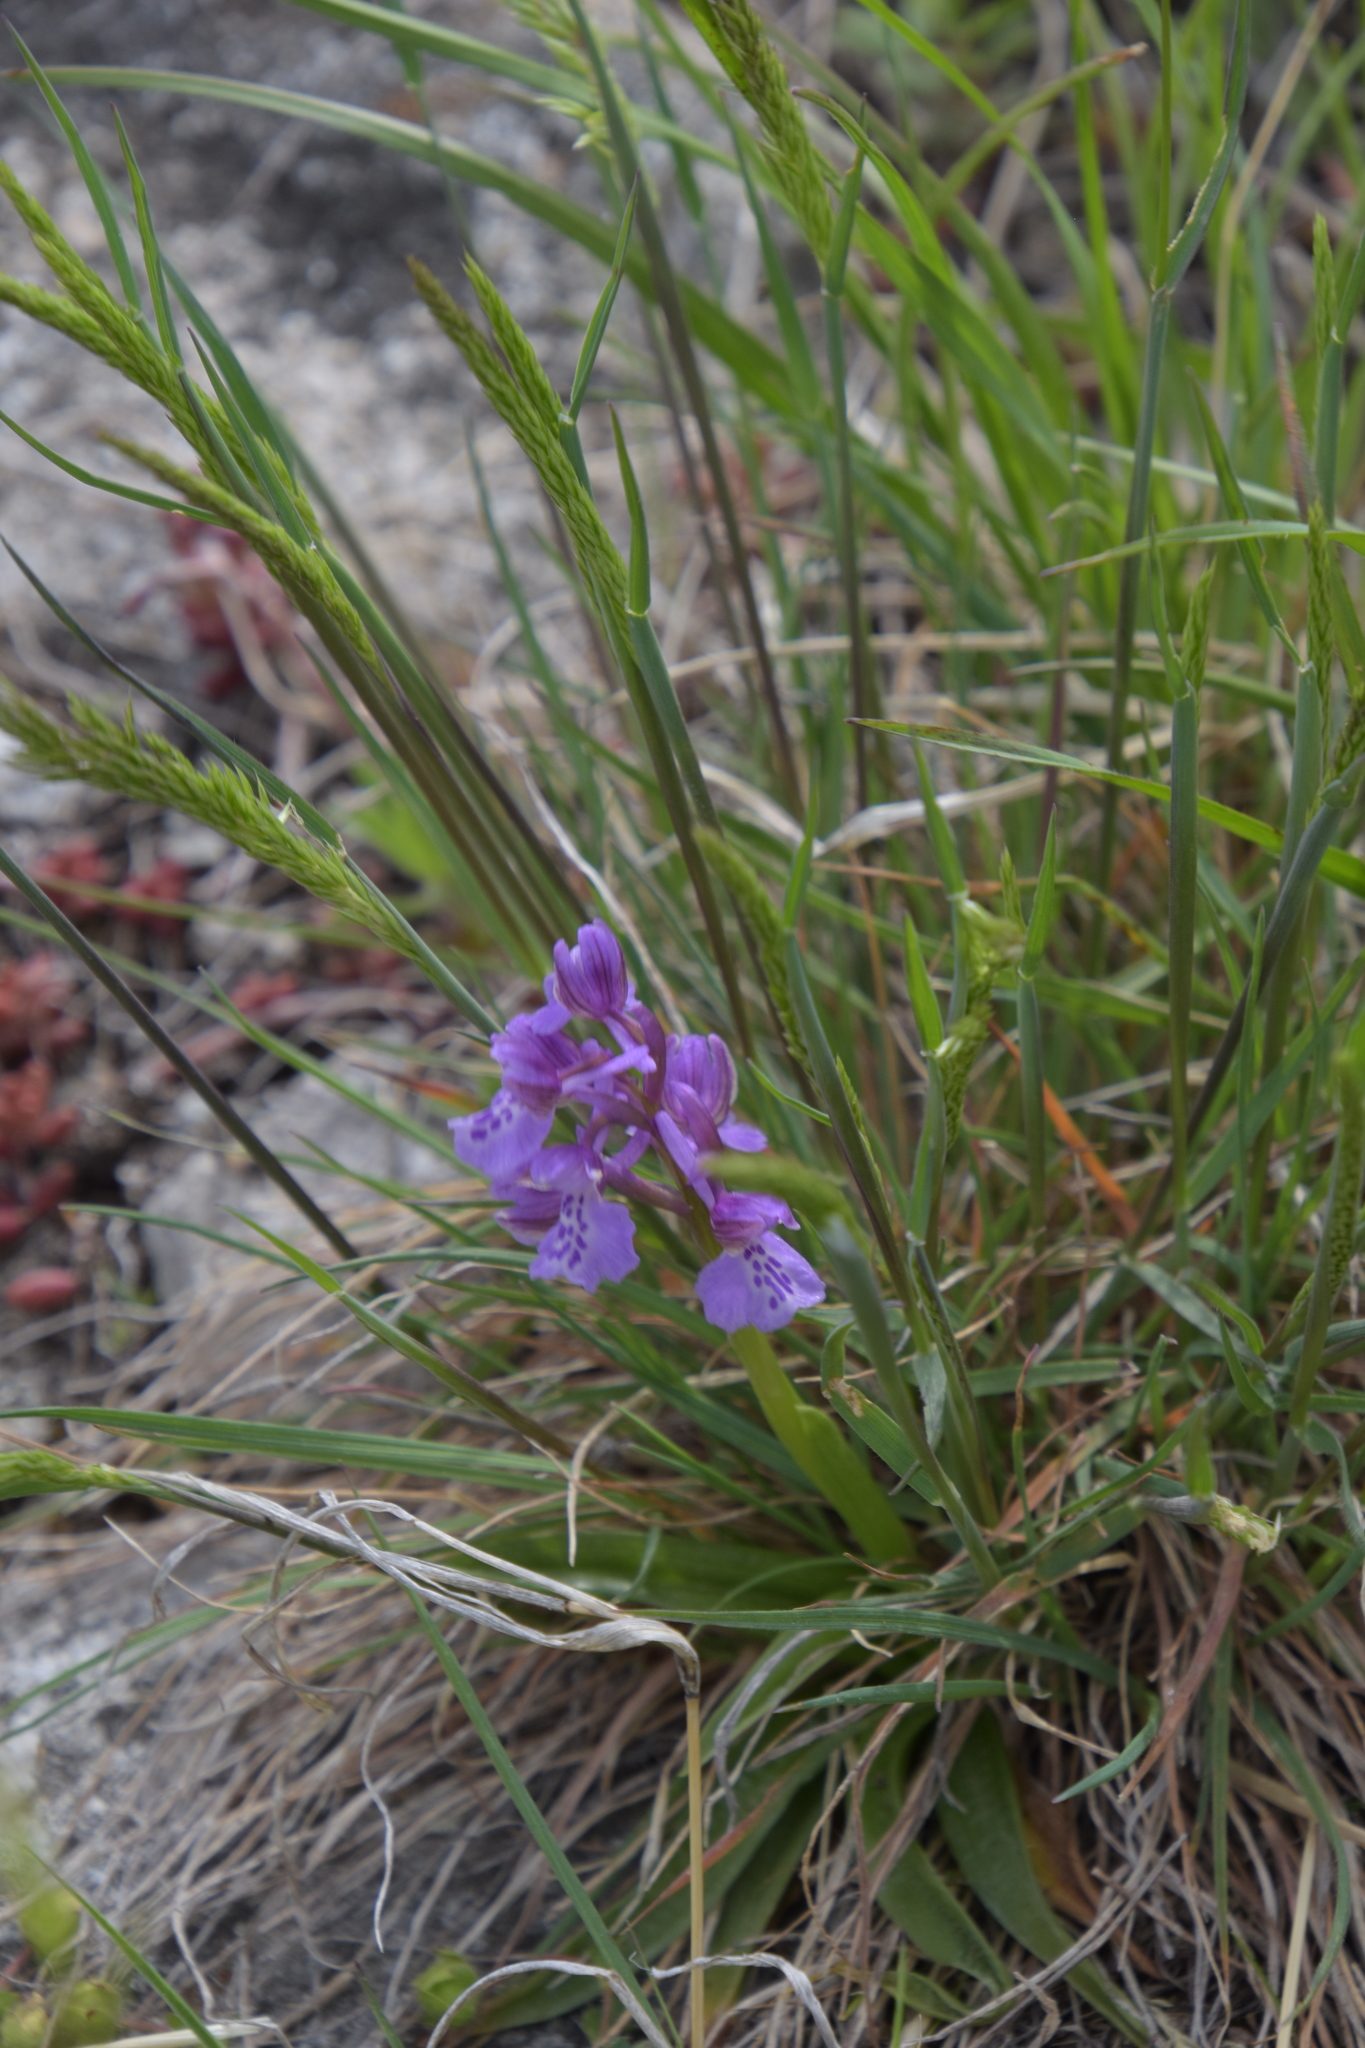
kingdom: Plantae
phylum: Tracheophyta
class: Liliopsida
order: Asparagales
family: Orchidaceae
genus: Anacamptis
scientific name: Anacamptis morio
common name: Green-winged orchid
